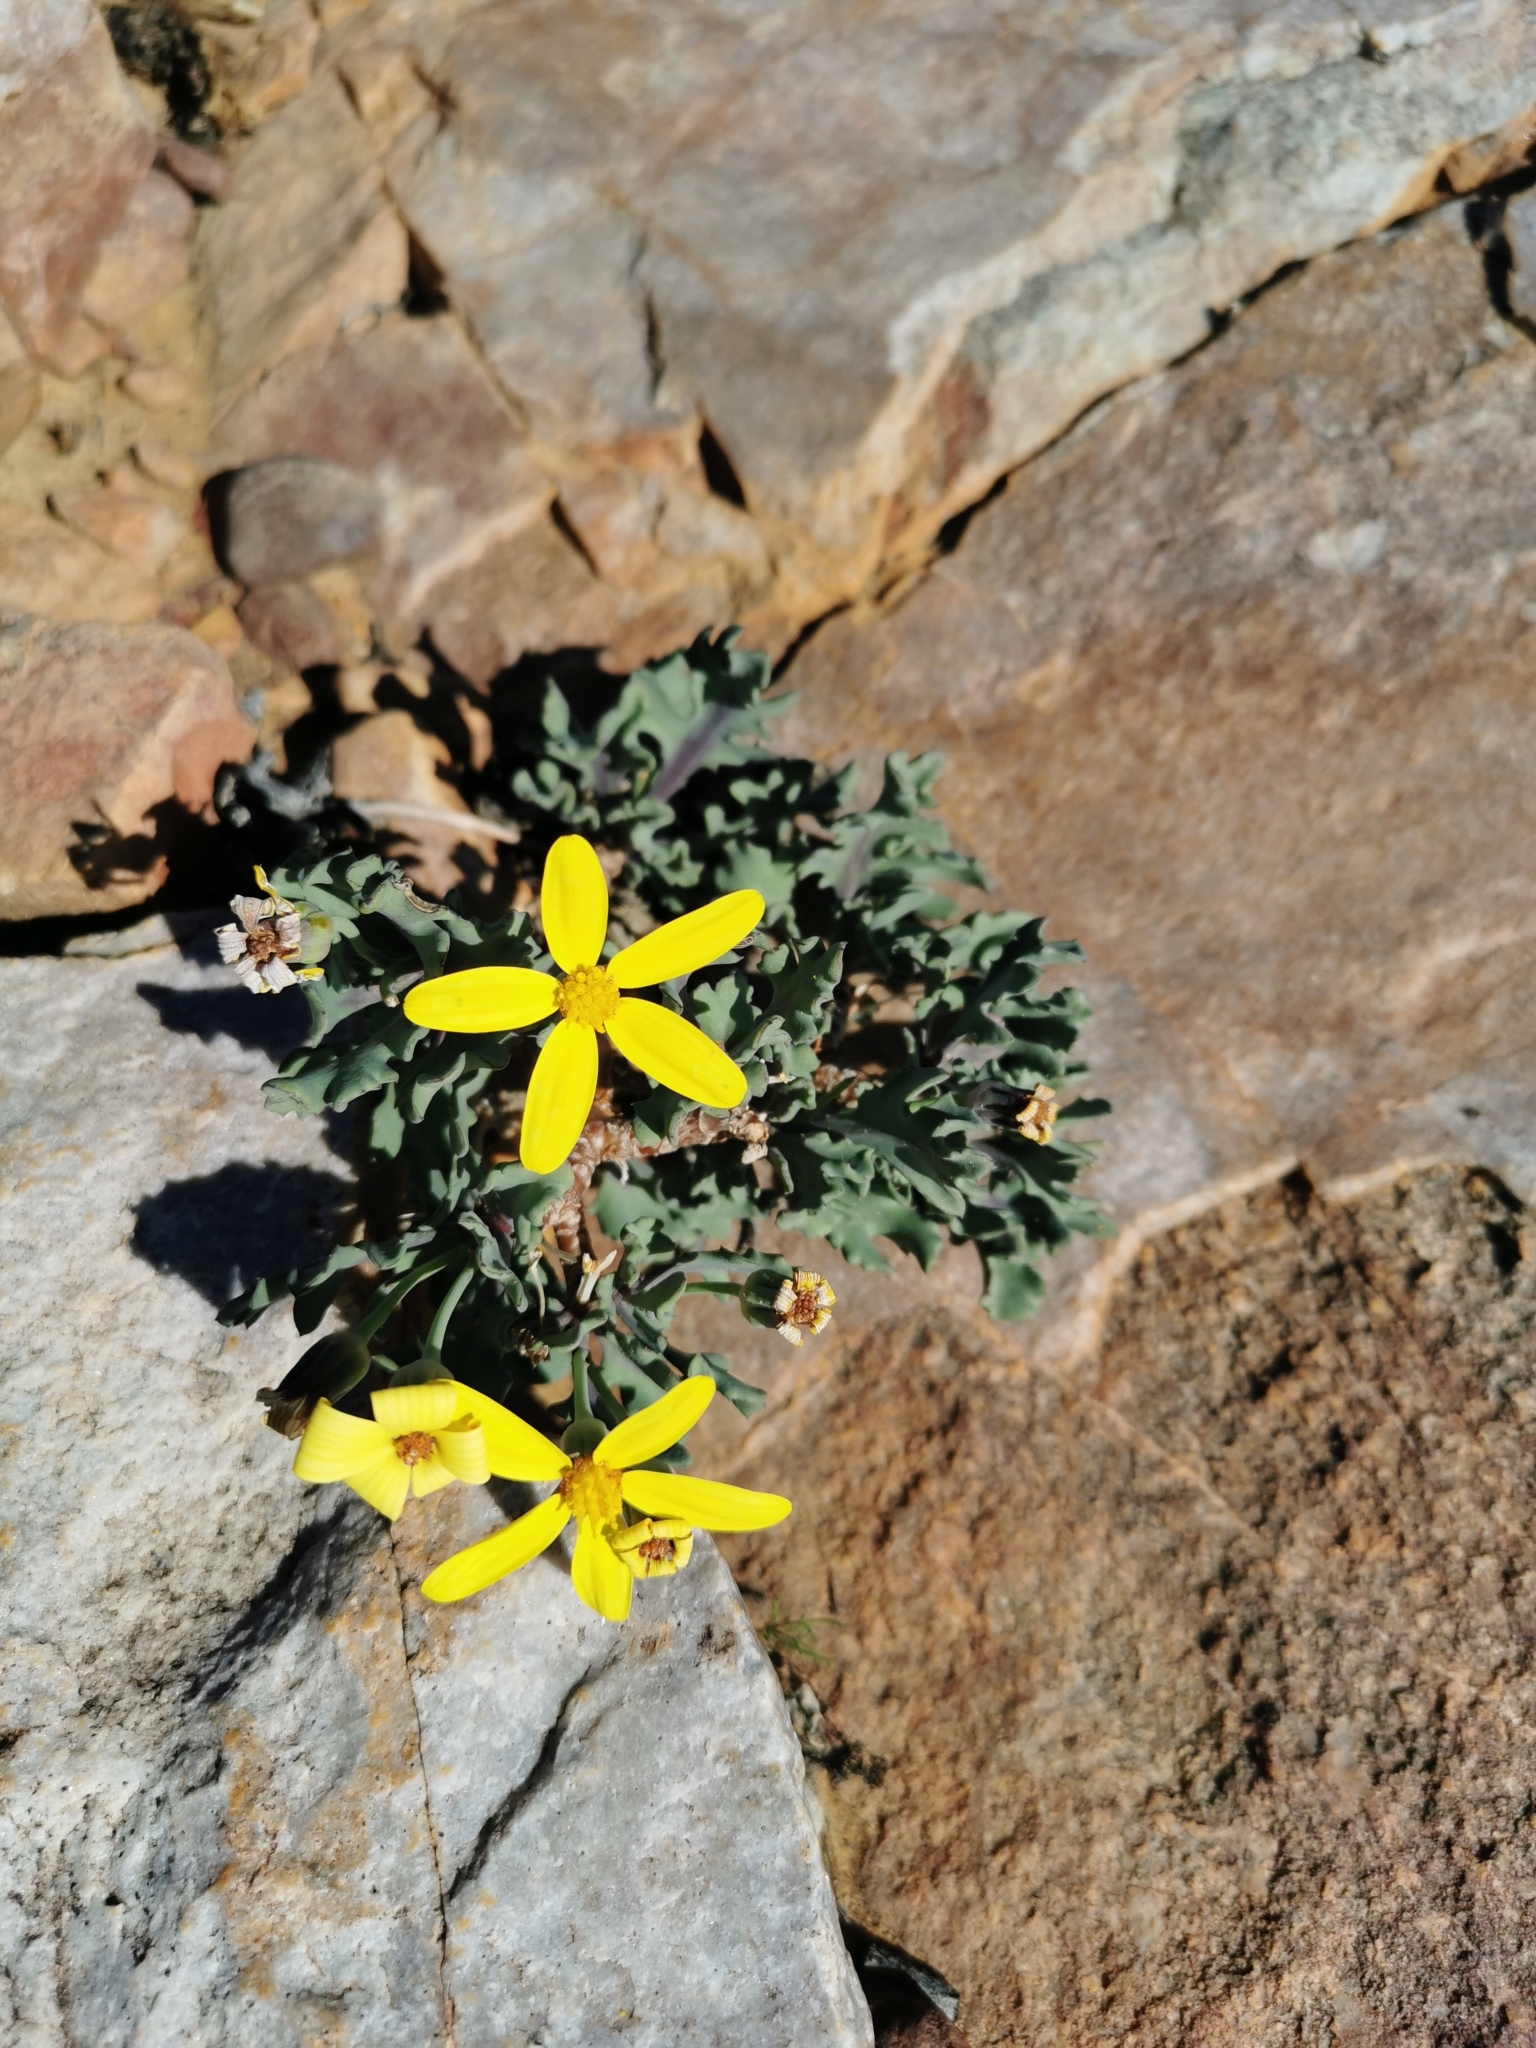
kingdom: Plantae
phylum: Tracheophyta
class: Magnoliopsida
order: Asterales
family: Asteraceae
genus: Othonna
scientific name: Othonna pumilio
